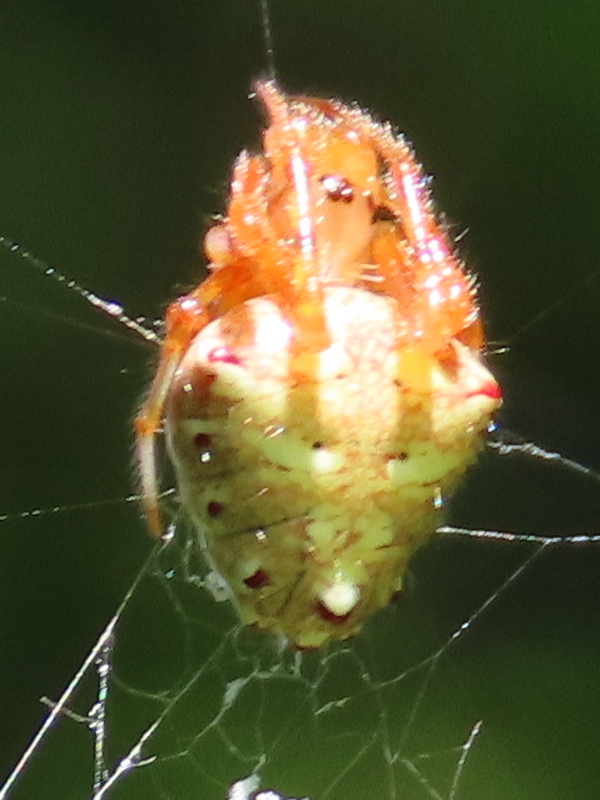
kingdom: Animalia
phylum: Arthropoda
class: Arachnida
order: Araneae
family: Araneidae
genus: Verrucosa
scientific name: Verrucosa arenata
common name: Orb weavers
